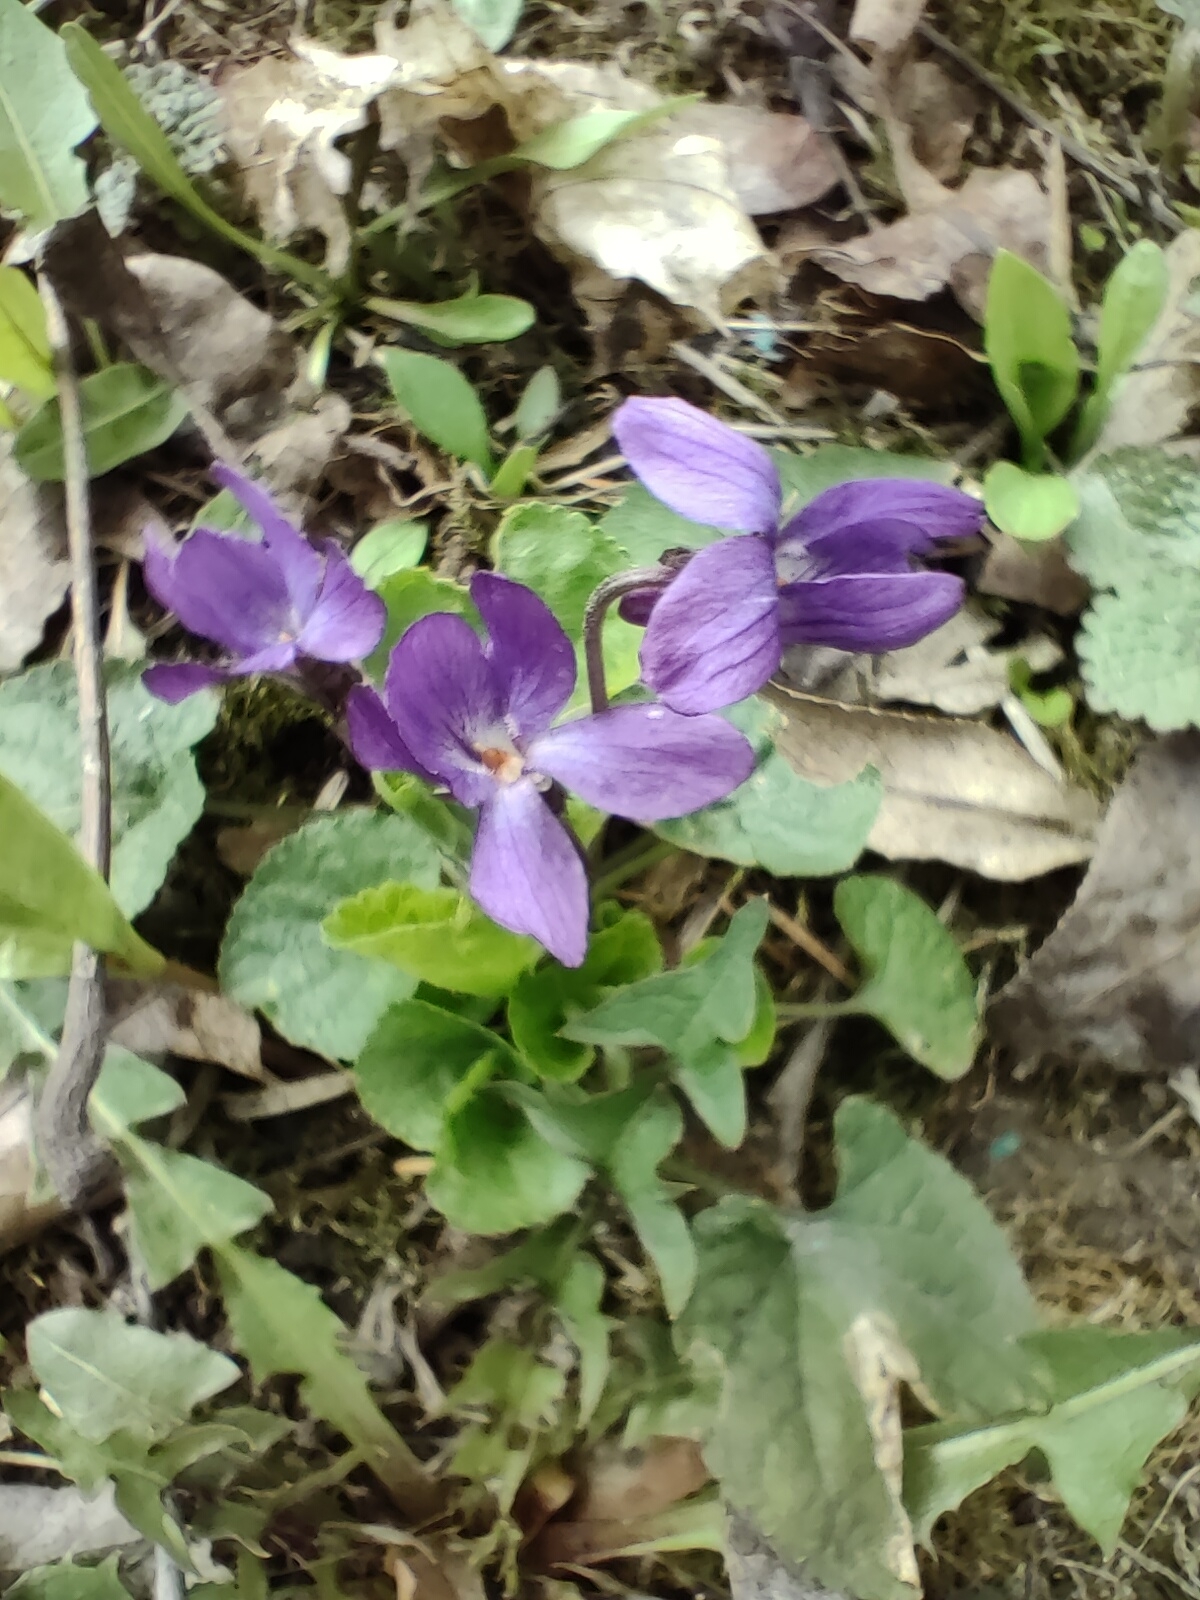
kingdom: Plantae
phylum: Tracheophyta
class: Magnoliopsida
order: Malpighiales
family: Violaceae
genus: Viola
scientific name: Viola odorata
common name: Sweet violet
